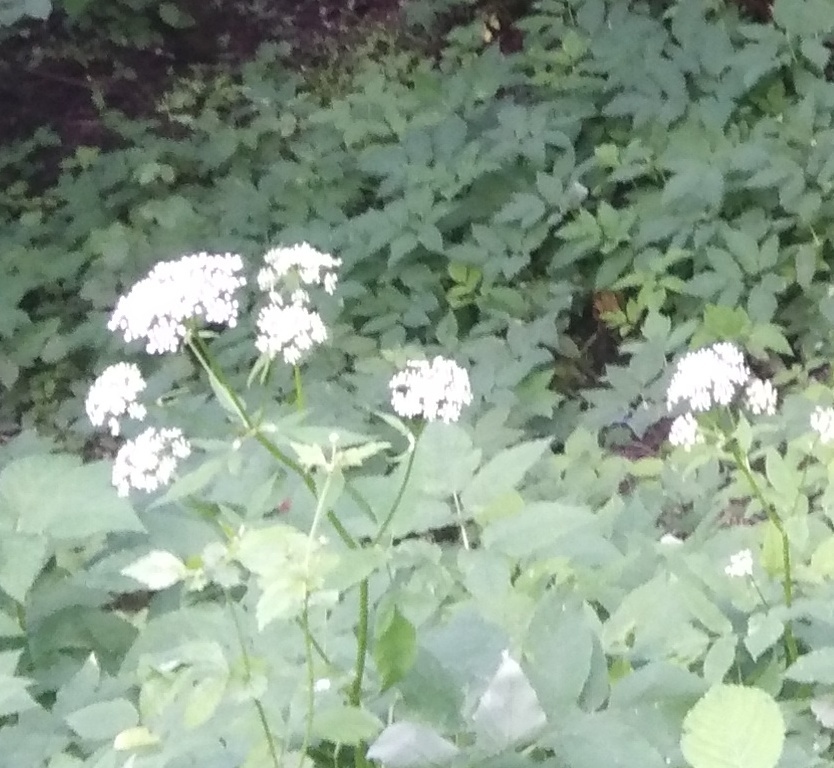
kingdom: Plantae
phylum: Tracheophyta
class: Magnoliopsida
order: Apiales
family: Apiaceae
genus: Aegopodium
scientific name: Aegopodium podagraria
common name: Ground-elder
